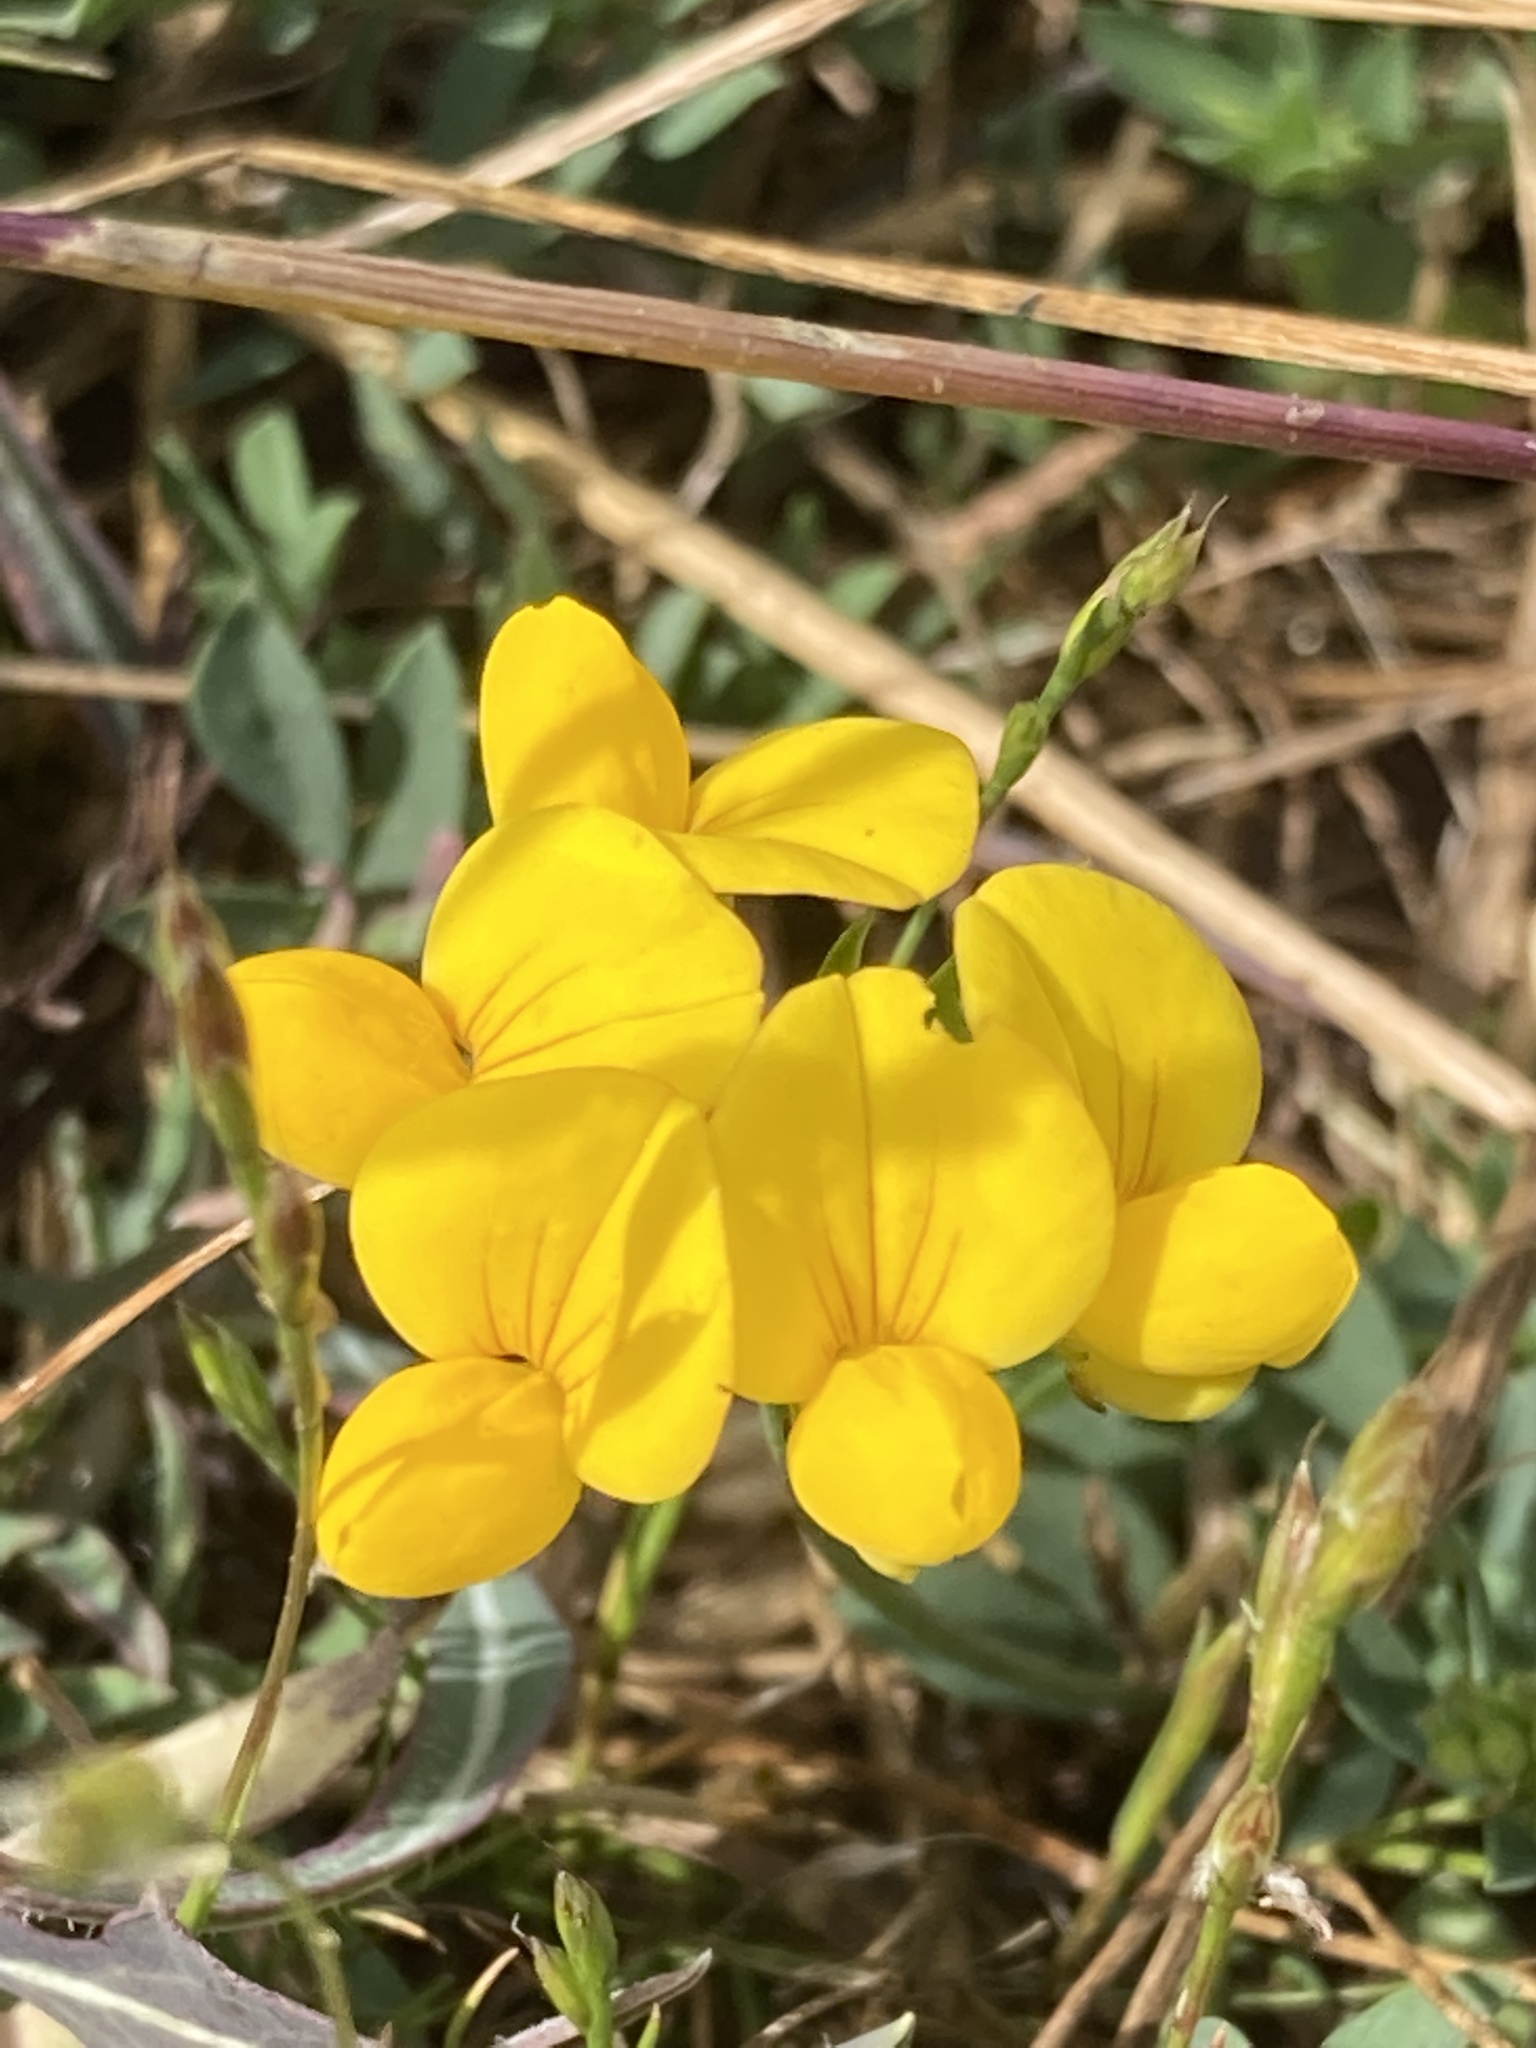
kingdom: Plantae
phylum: Tracheophyta
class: Magnoliopsida
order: Fabales
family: Fabaceae
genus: Lotus
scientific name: Lotus corniculatus
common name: Common bird's-foot-trefoil
